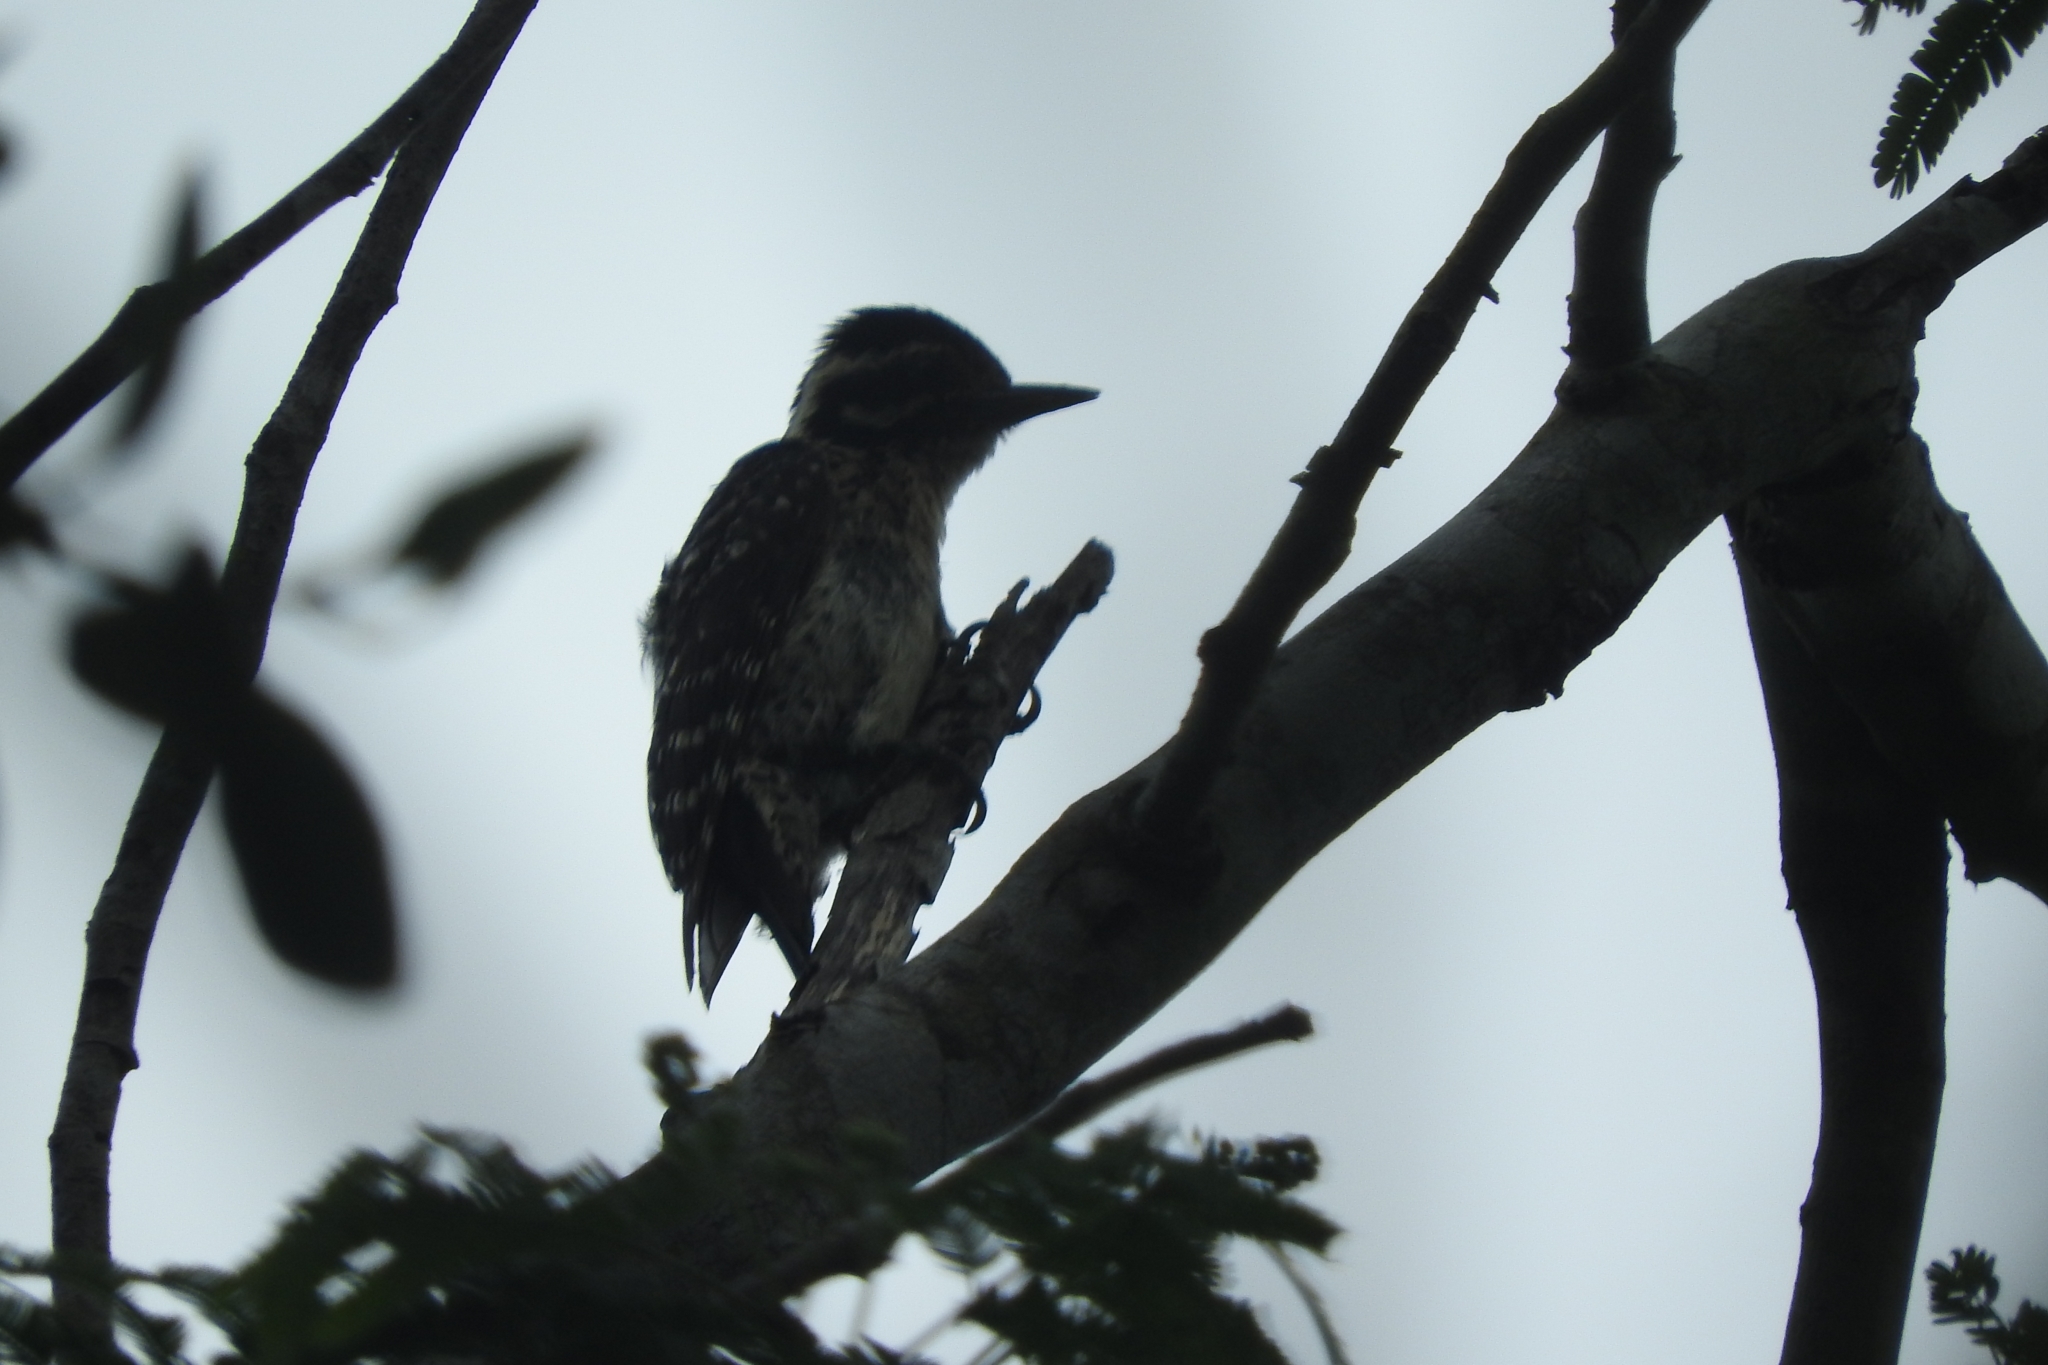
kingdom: Animalia
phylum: Chordata
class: Aves
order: Piciformes
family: Picidae
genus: Dryobates
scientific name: Dryobates scalaris
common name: Ladder-backed woodpecker
